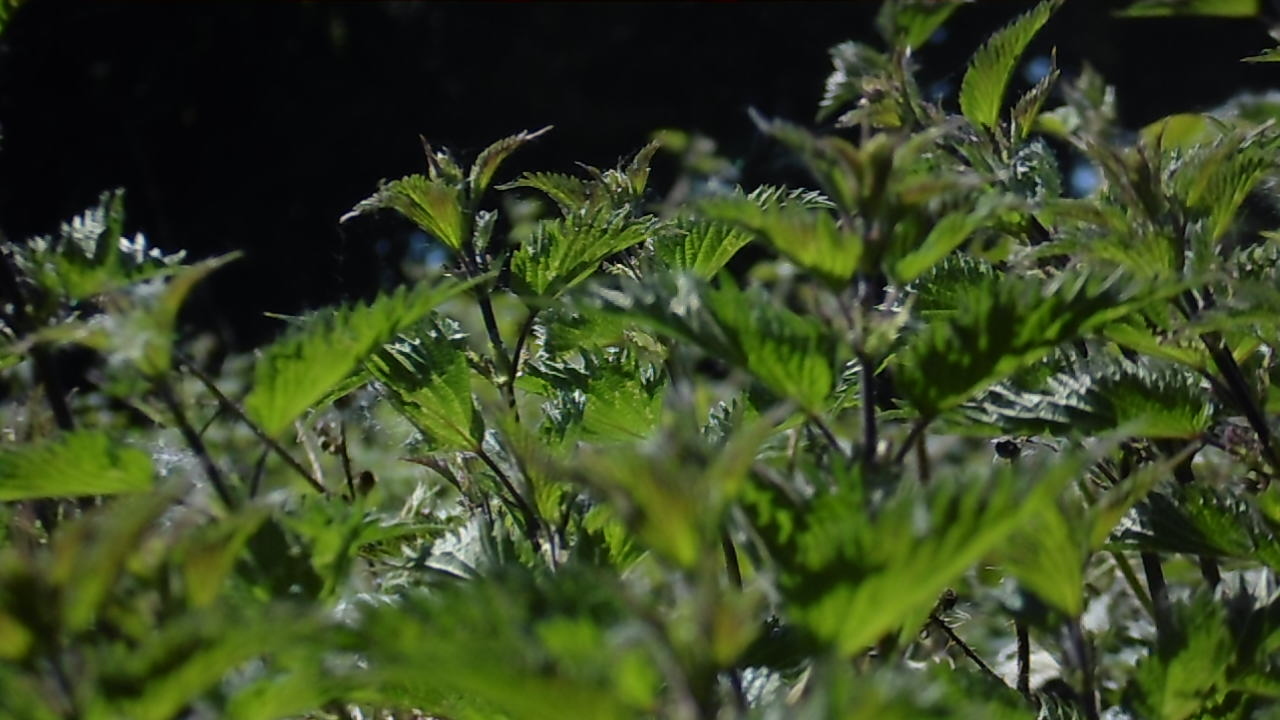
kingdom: Plantae
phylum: Tracheophyta
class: Magnoliopsida
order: Rosales
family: Urticaceae
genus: Urtica
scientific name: Urtica dioica
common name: Common nettle
